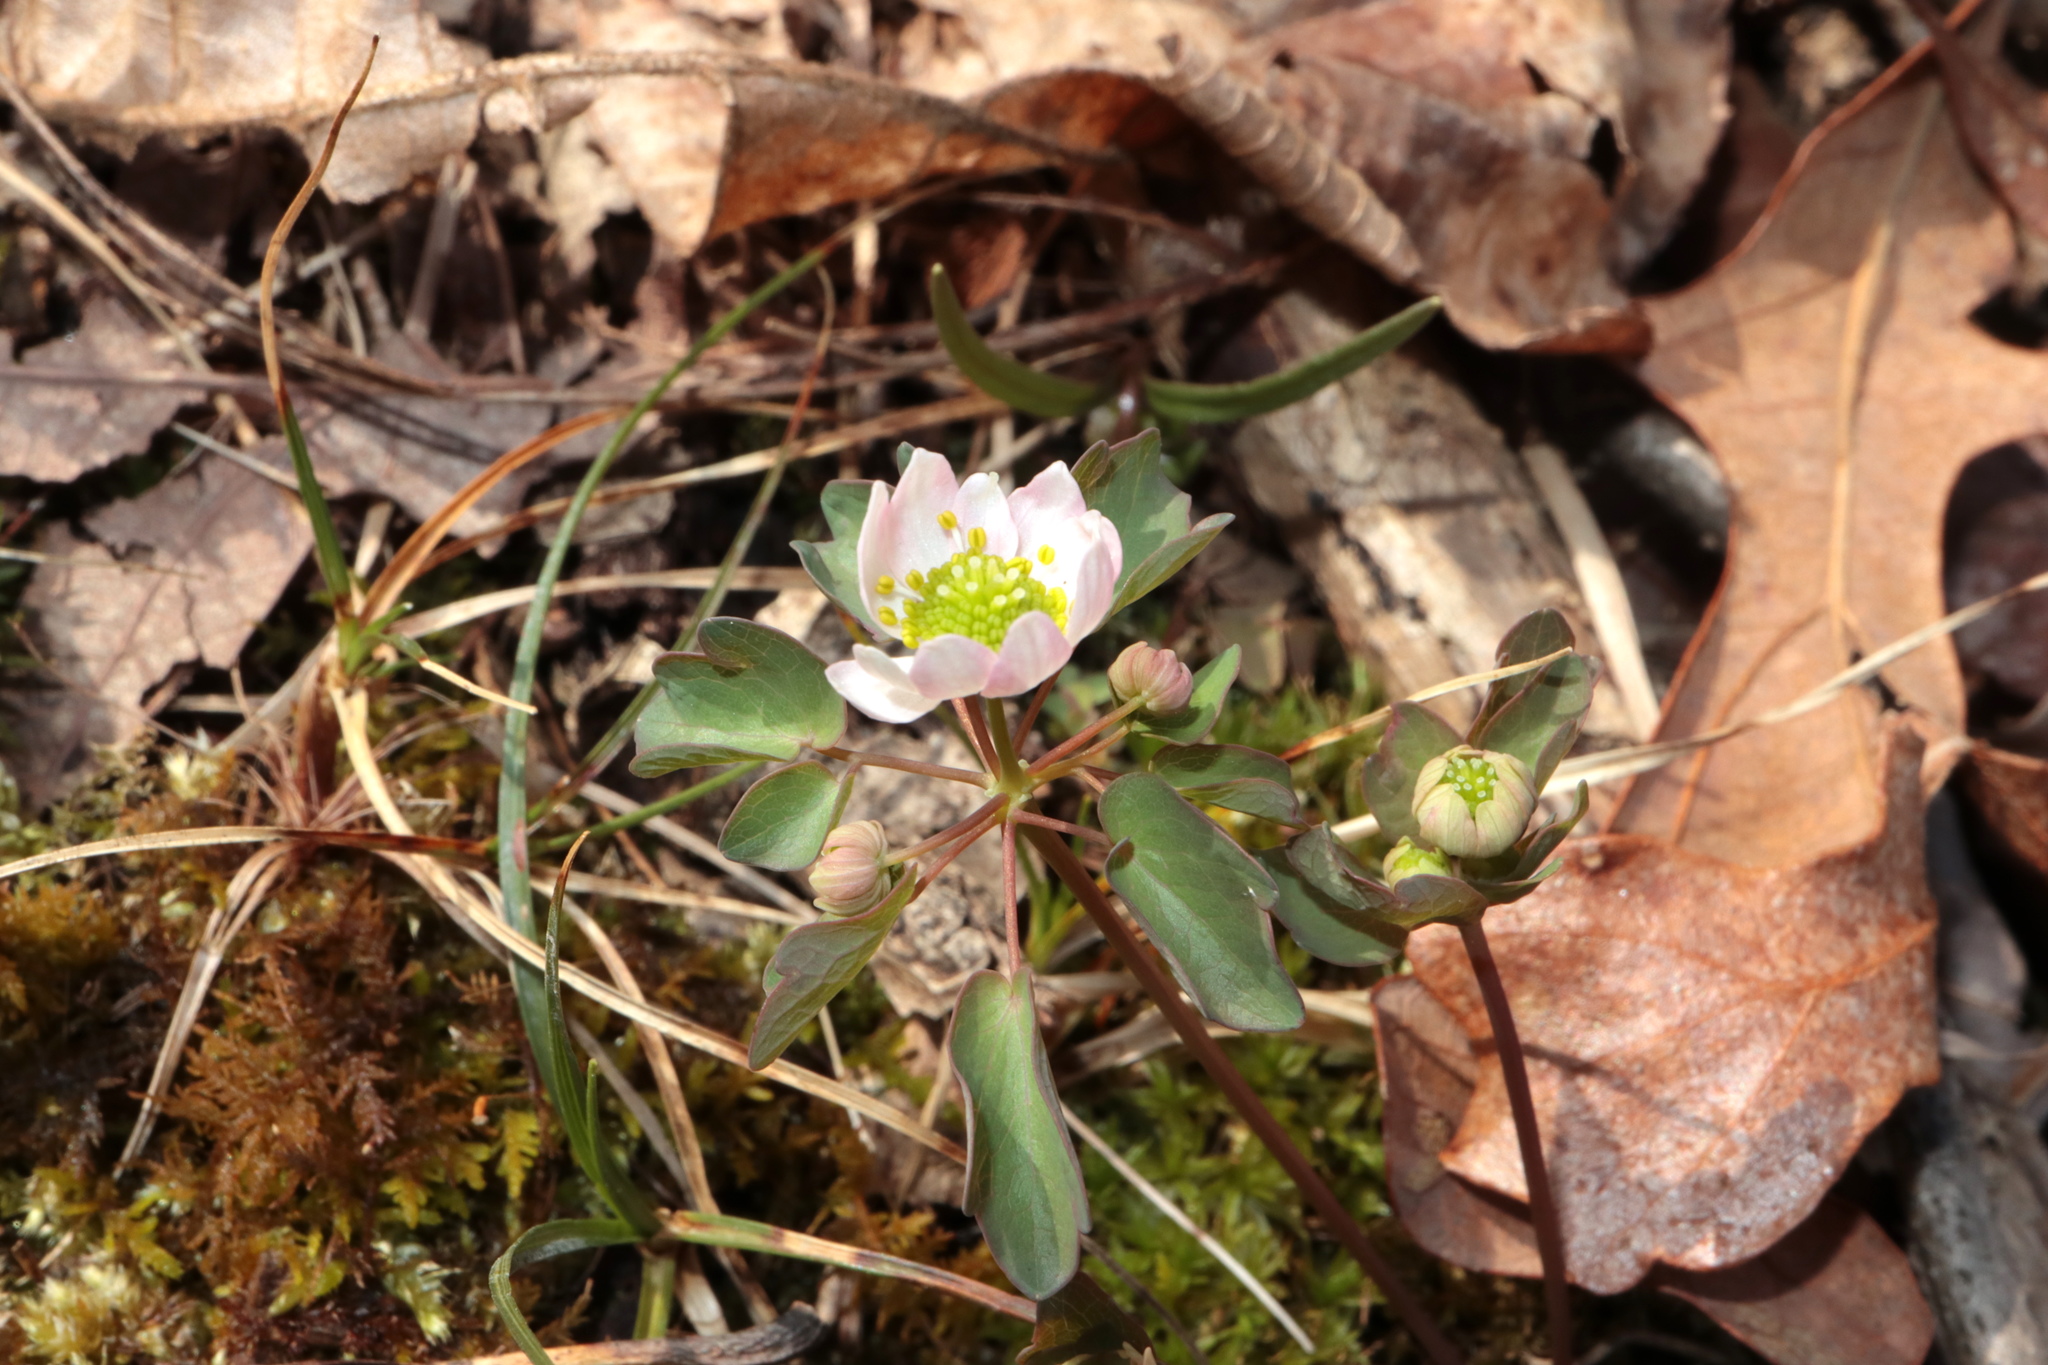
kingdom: Plantae
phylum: Tracheophyta
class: Magnoliopsida
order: Ranunculales
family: Ranunculaceae
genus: Thalictrum
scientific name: Thalictrum thalictroides
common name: Rue-anemone
